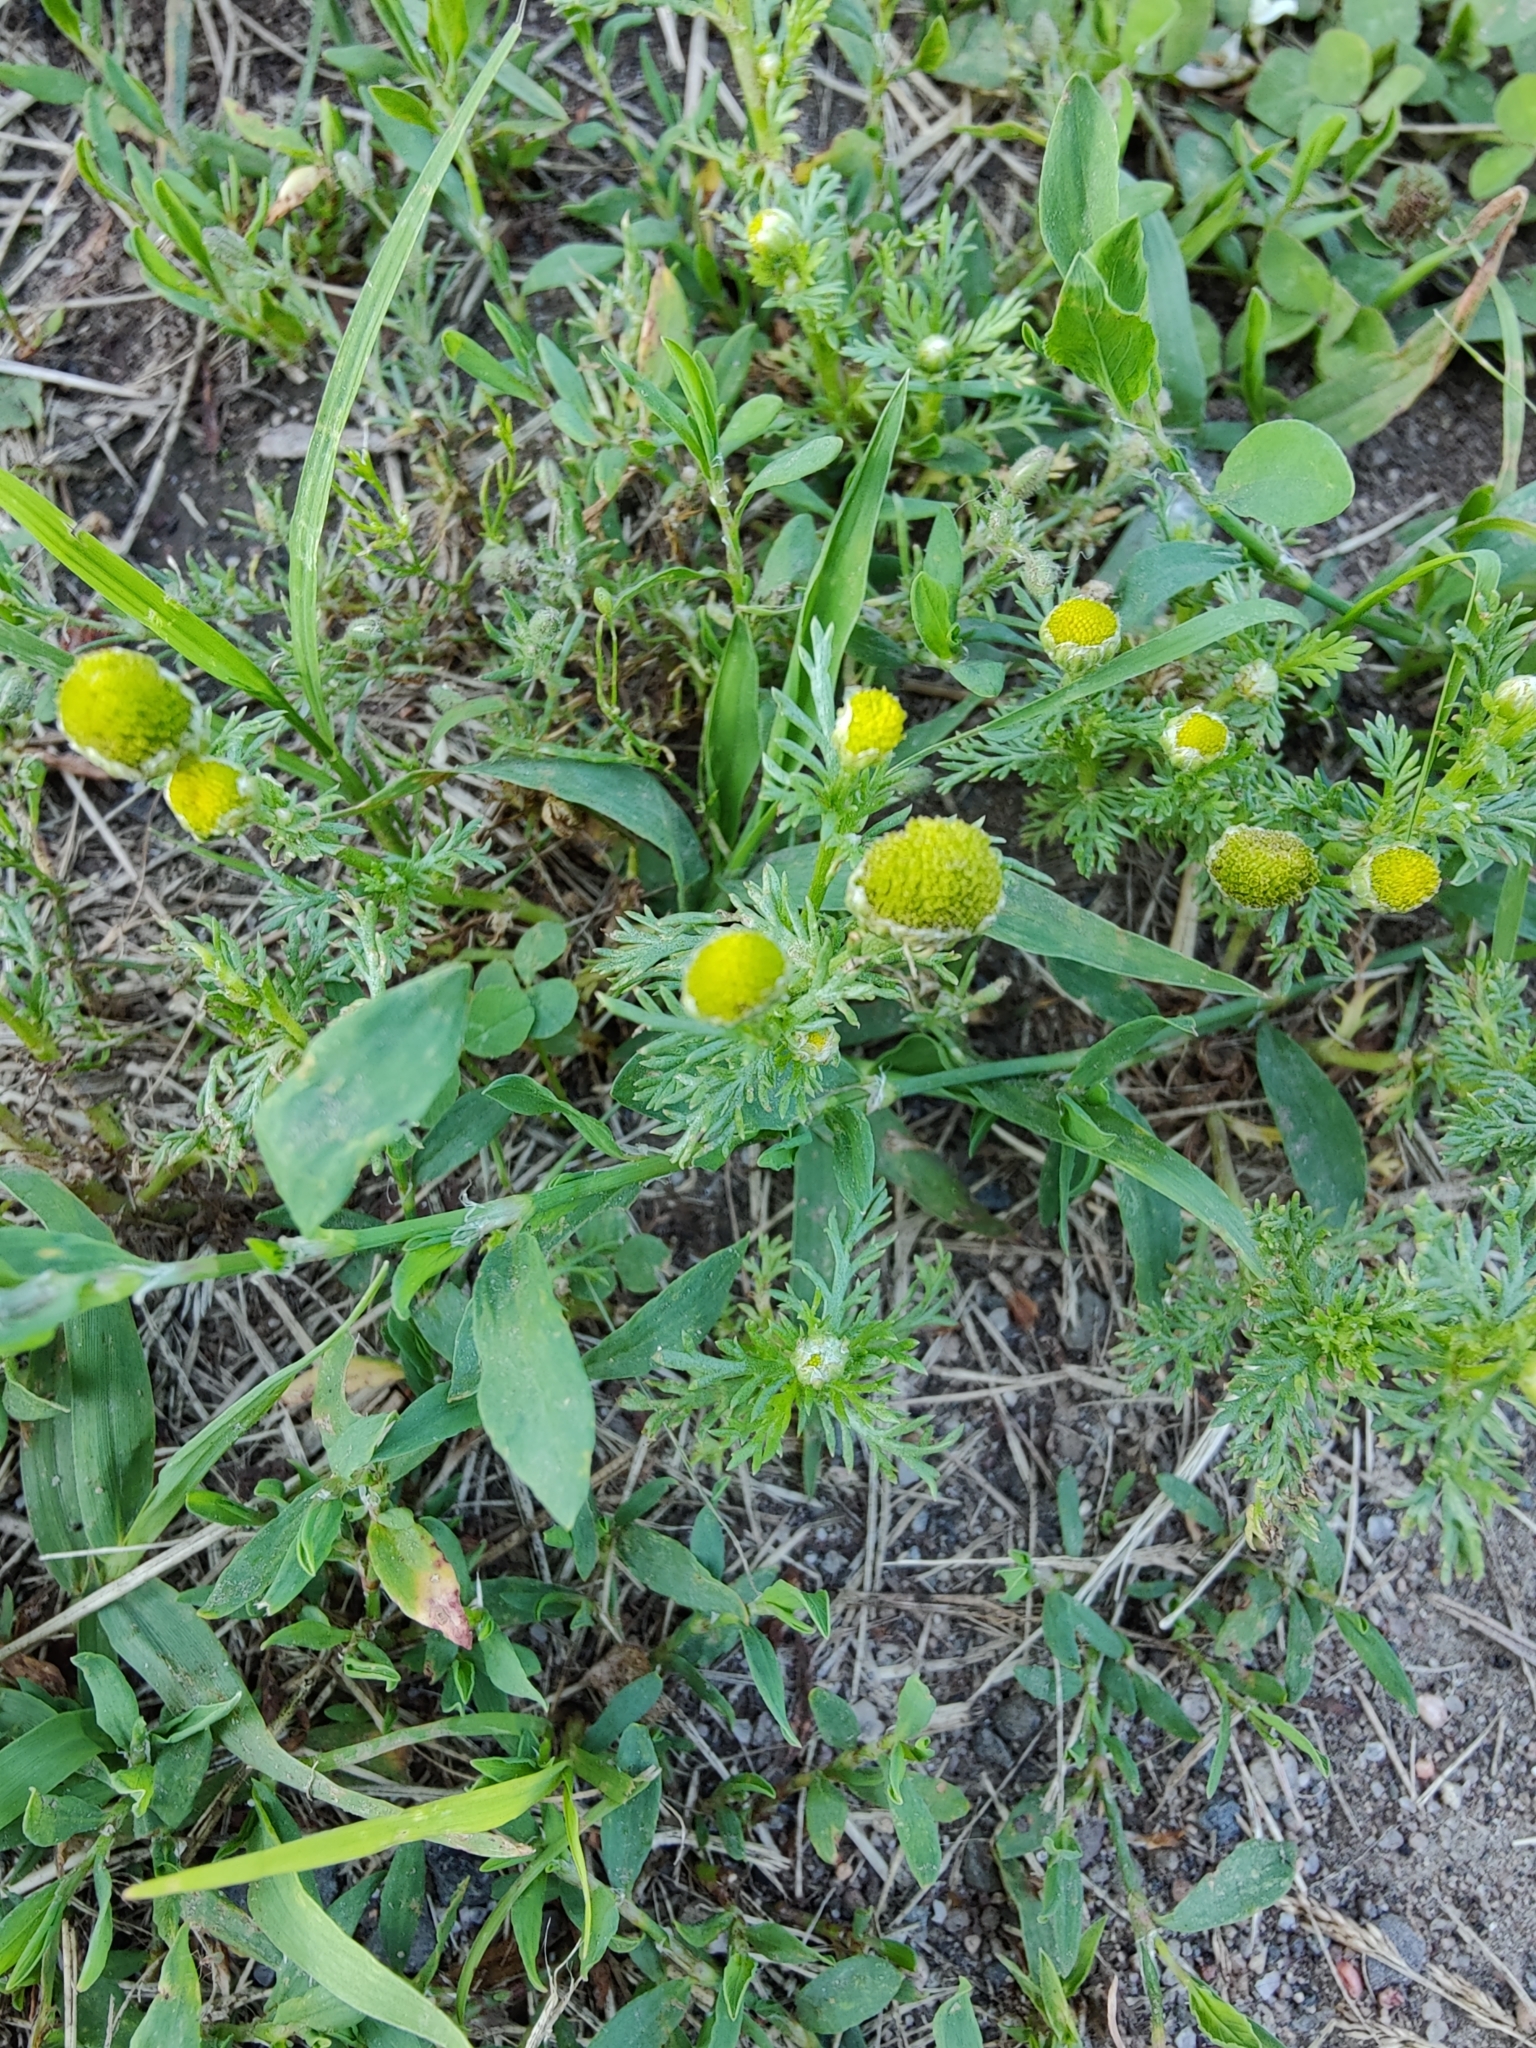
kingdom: Plantae
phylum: Tracheophyta
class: Magnoliopsida
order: Asterales
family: Asteraceae
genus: Matricaria
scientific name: Matricaria discoidea
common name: Disc mayweed
